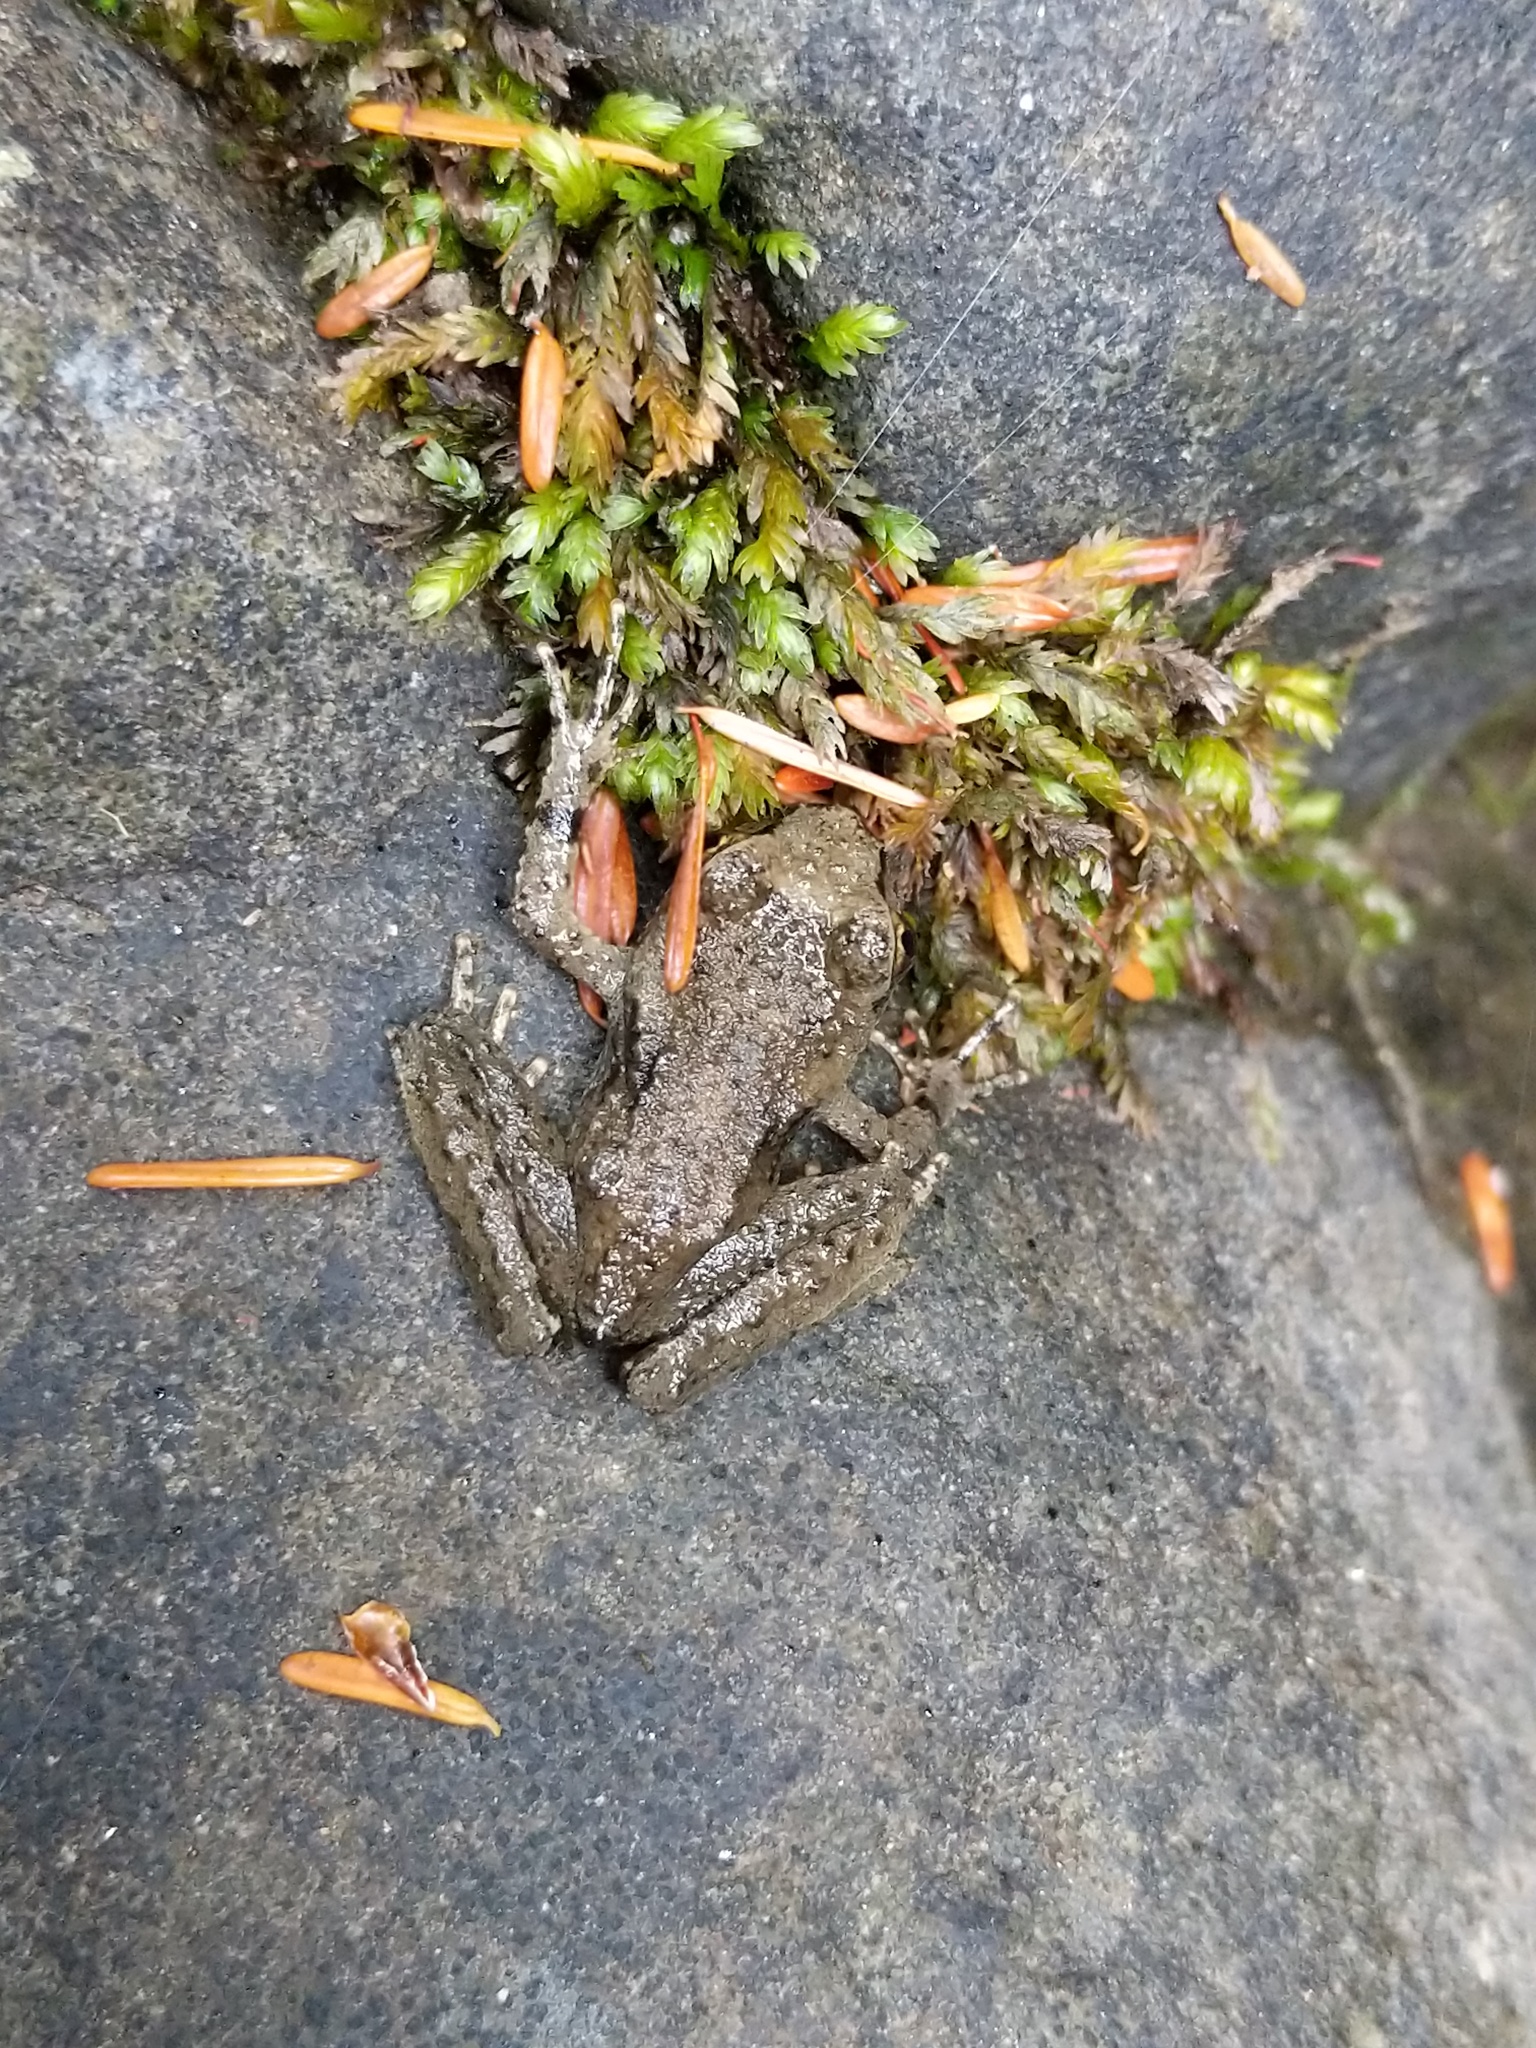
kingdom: Animalia
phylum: Chordata
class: Amphibia
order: Anura
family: Ascaphidae
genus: Ascaphus
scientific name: Ascaphus truei
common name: Tailed frog
